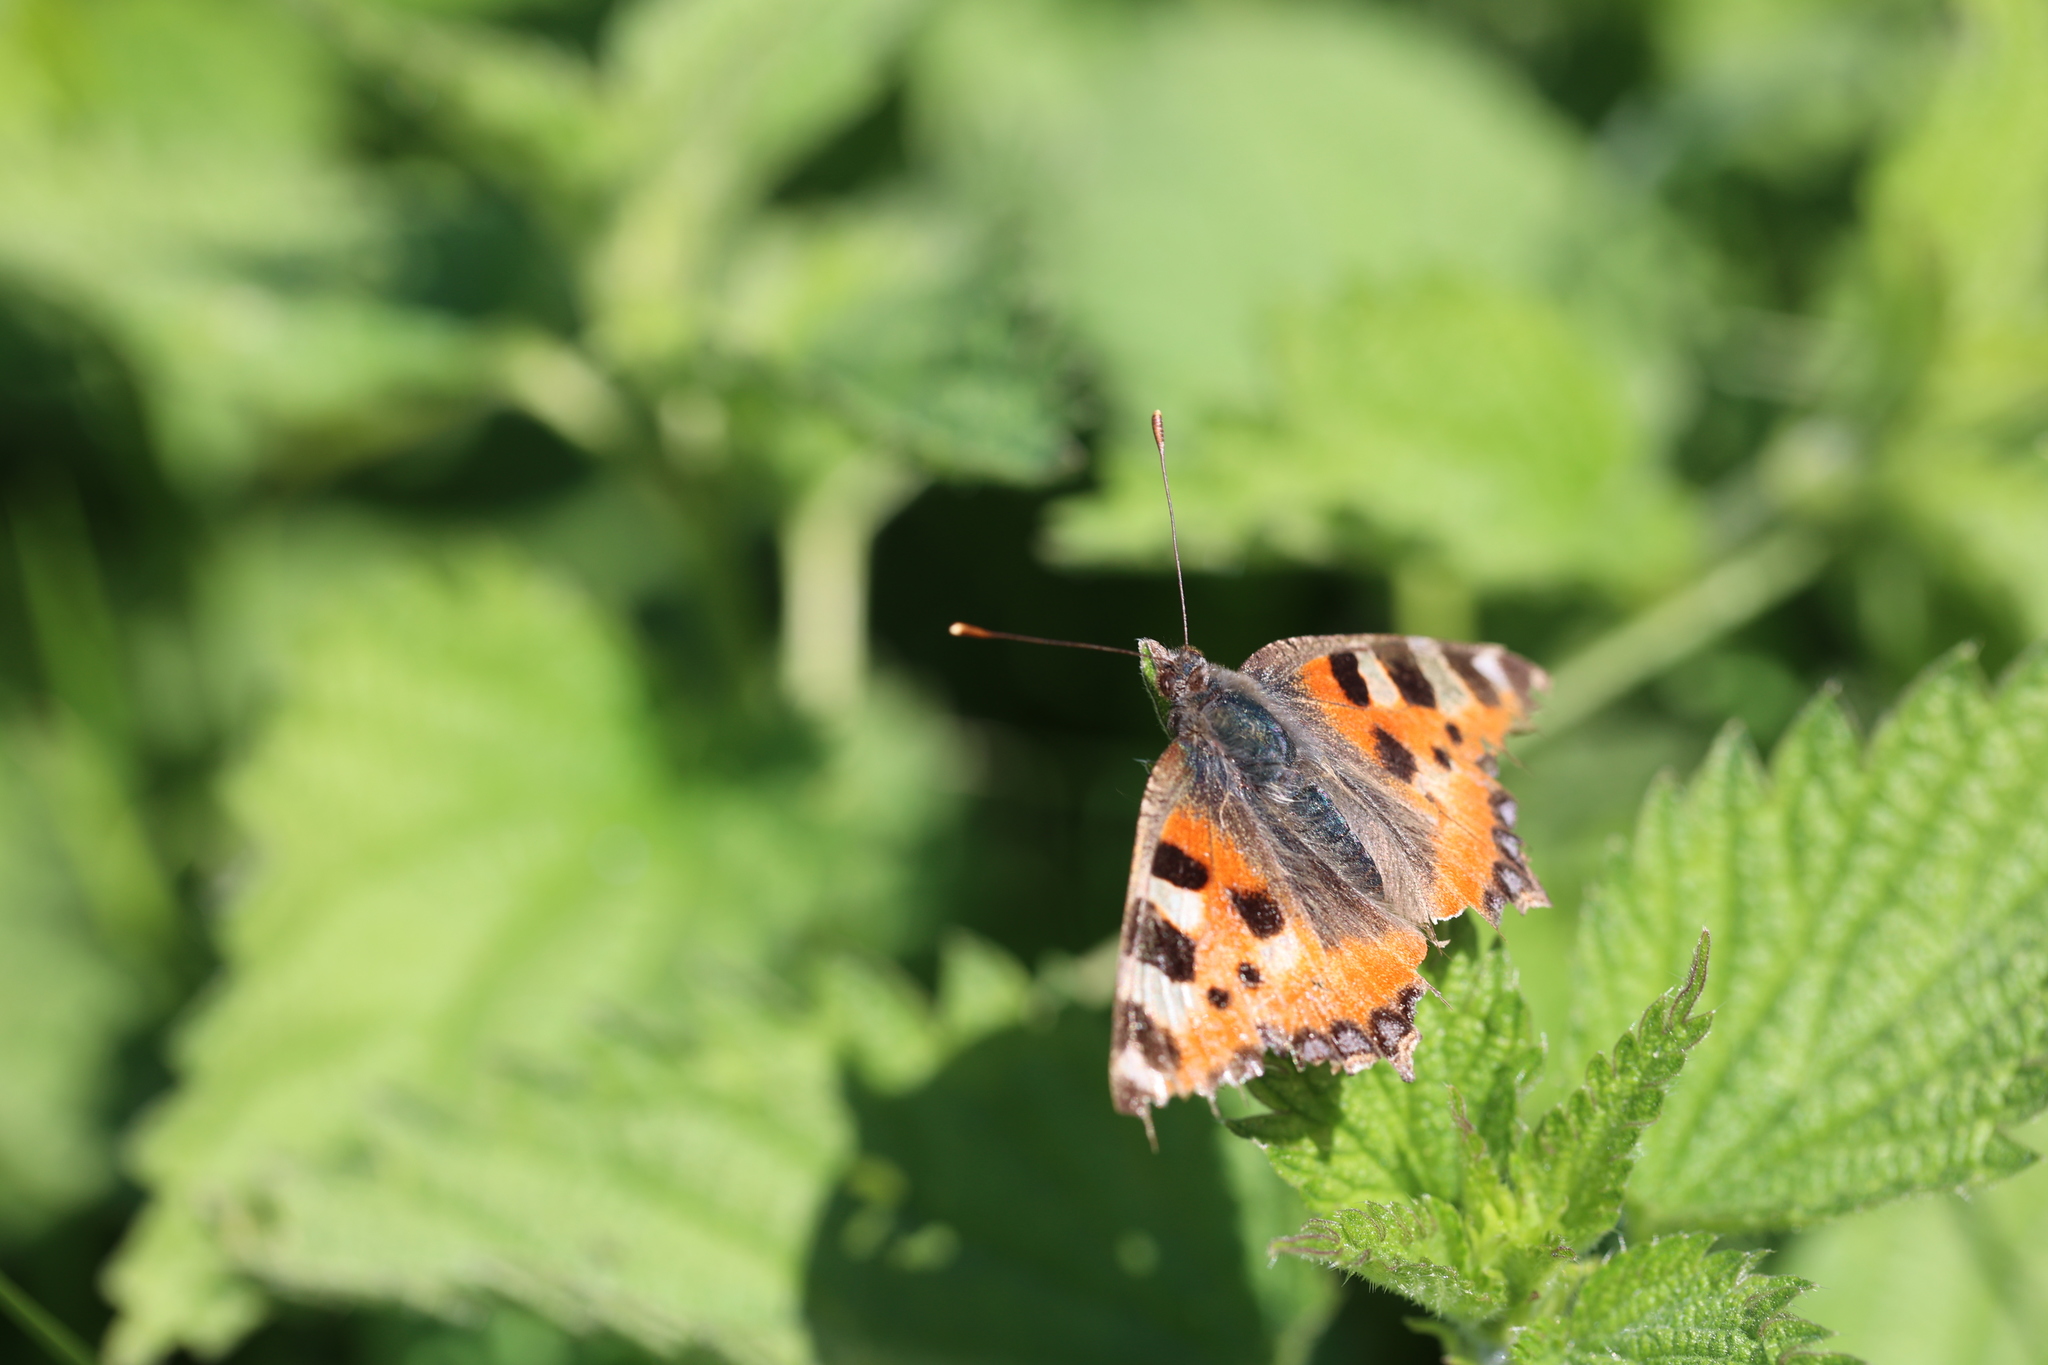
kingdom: Animalia
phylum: Arthropoda
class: Insecta
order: Lepidoptera
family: Nymphalidae
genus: Aglais
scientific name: Aglais urticae
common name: Small tortoiseshell
